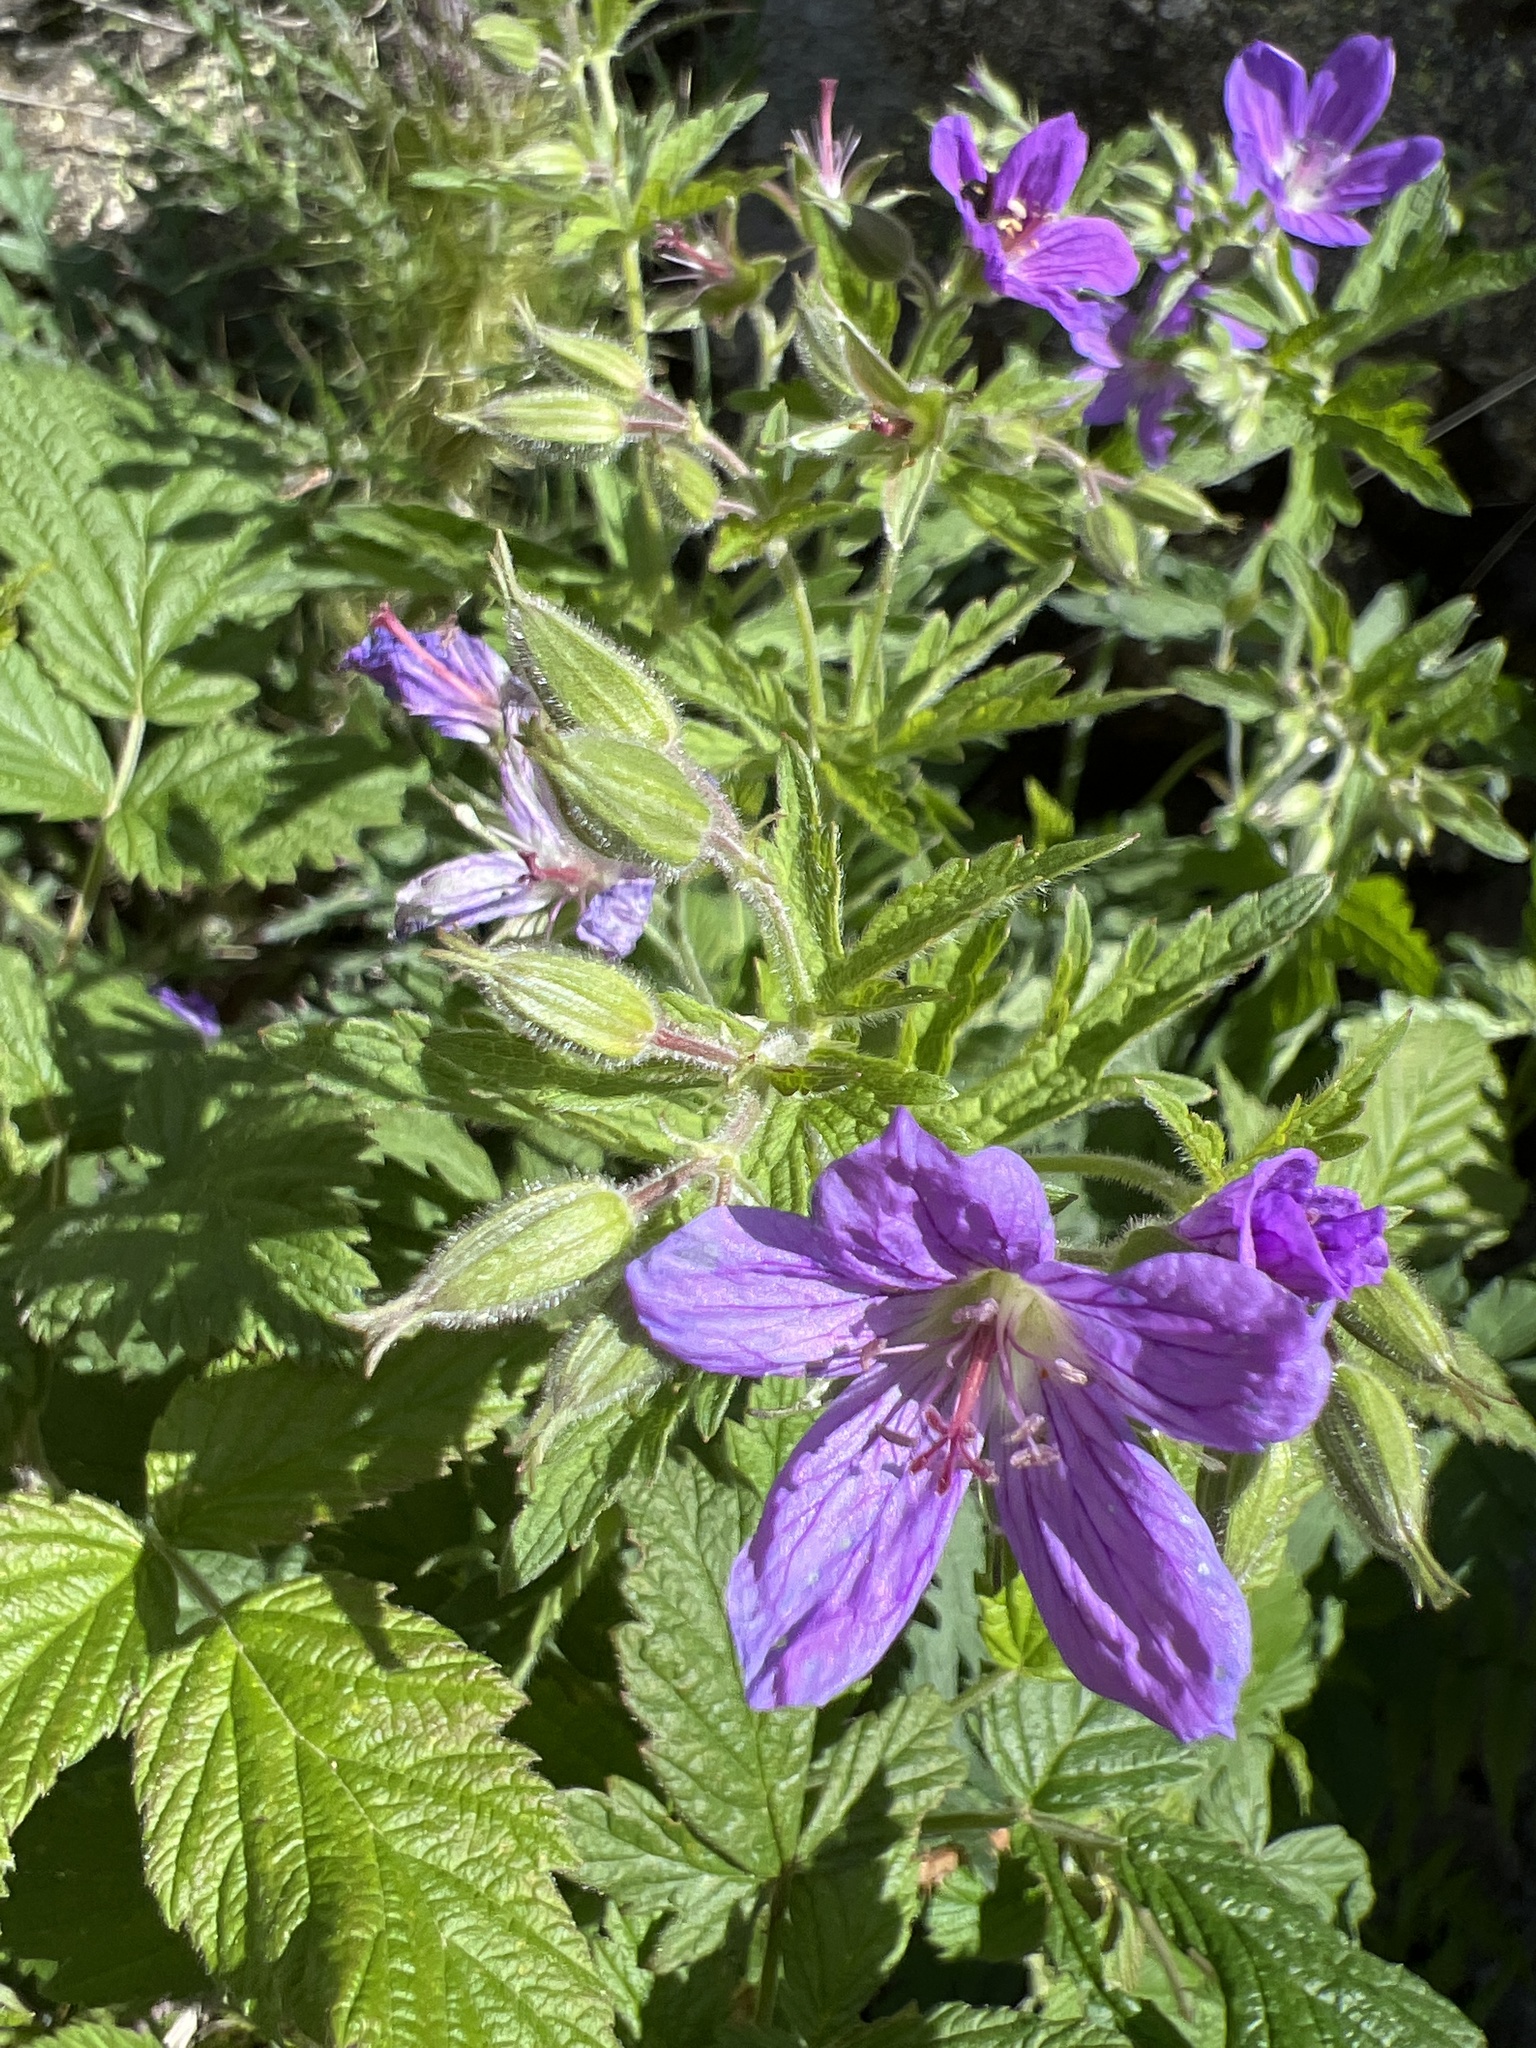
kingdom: Plantae
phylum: Tracheophyta
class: Magnoliopsida
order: Geraniales
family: Geraniaceae
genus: Geranium
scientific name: Geranium sylvaticum
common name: Wood crane's-bill
